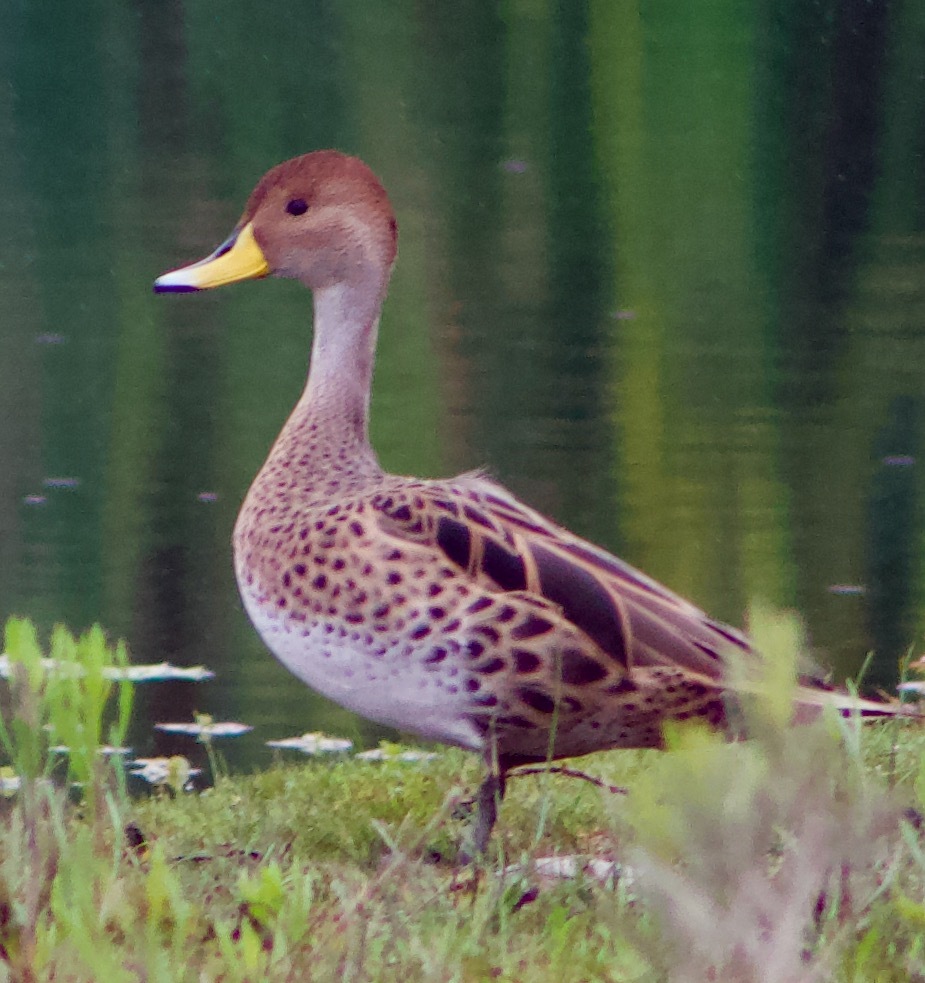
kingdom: Animalia
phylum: Chordata
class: Aves
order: Anseriformes
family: Anatidae
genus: Anas
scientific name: Anas georgica
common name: Yellow-billed pintail
